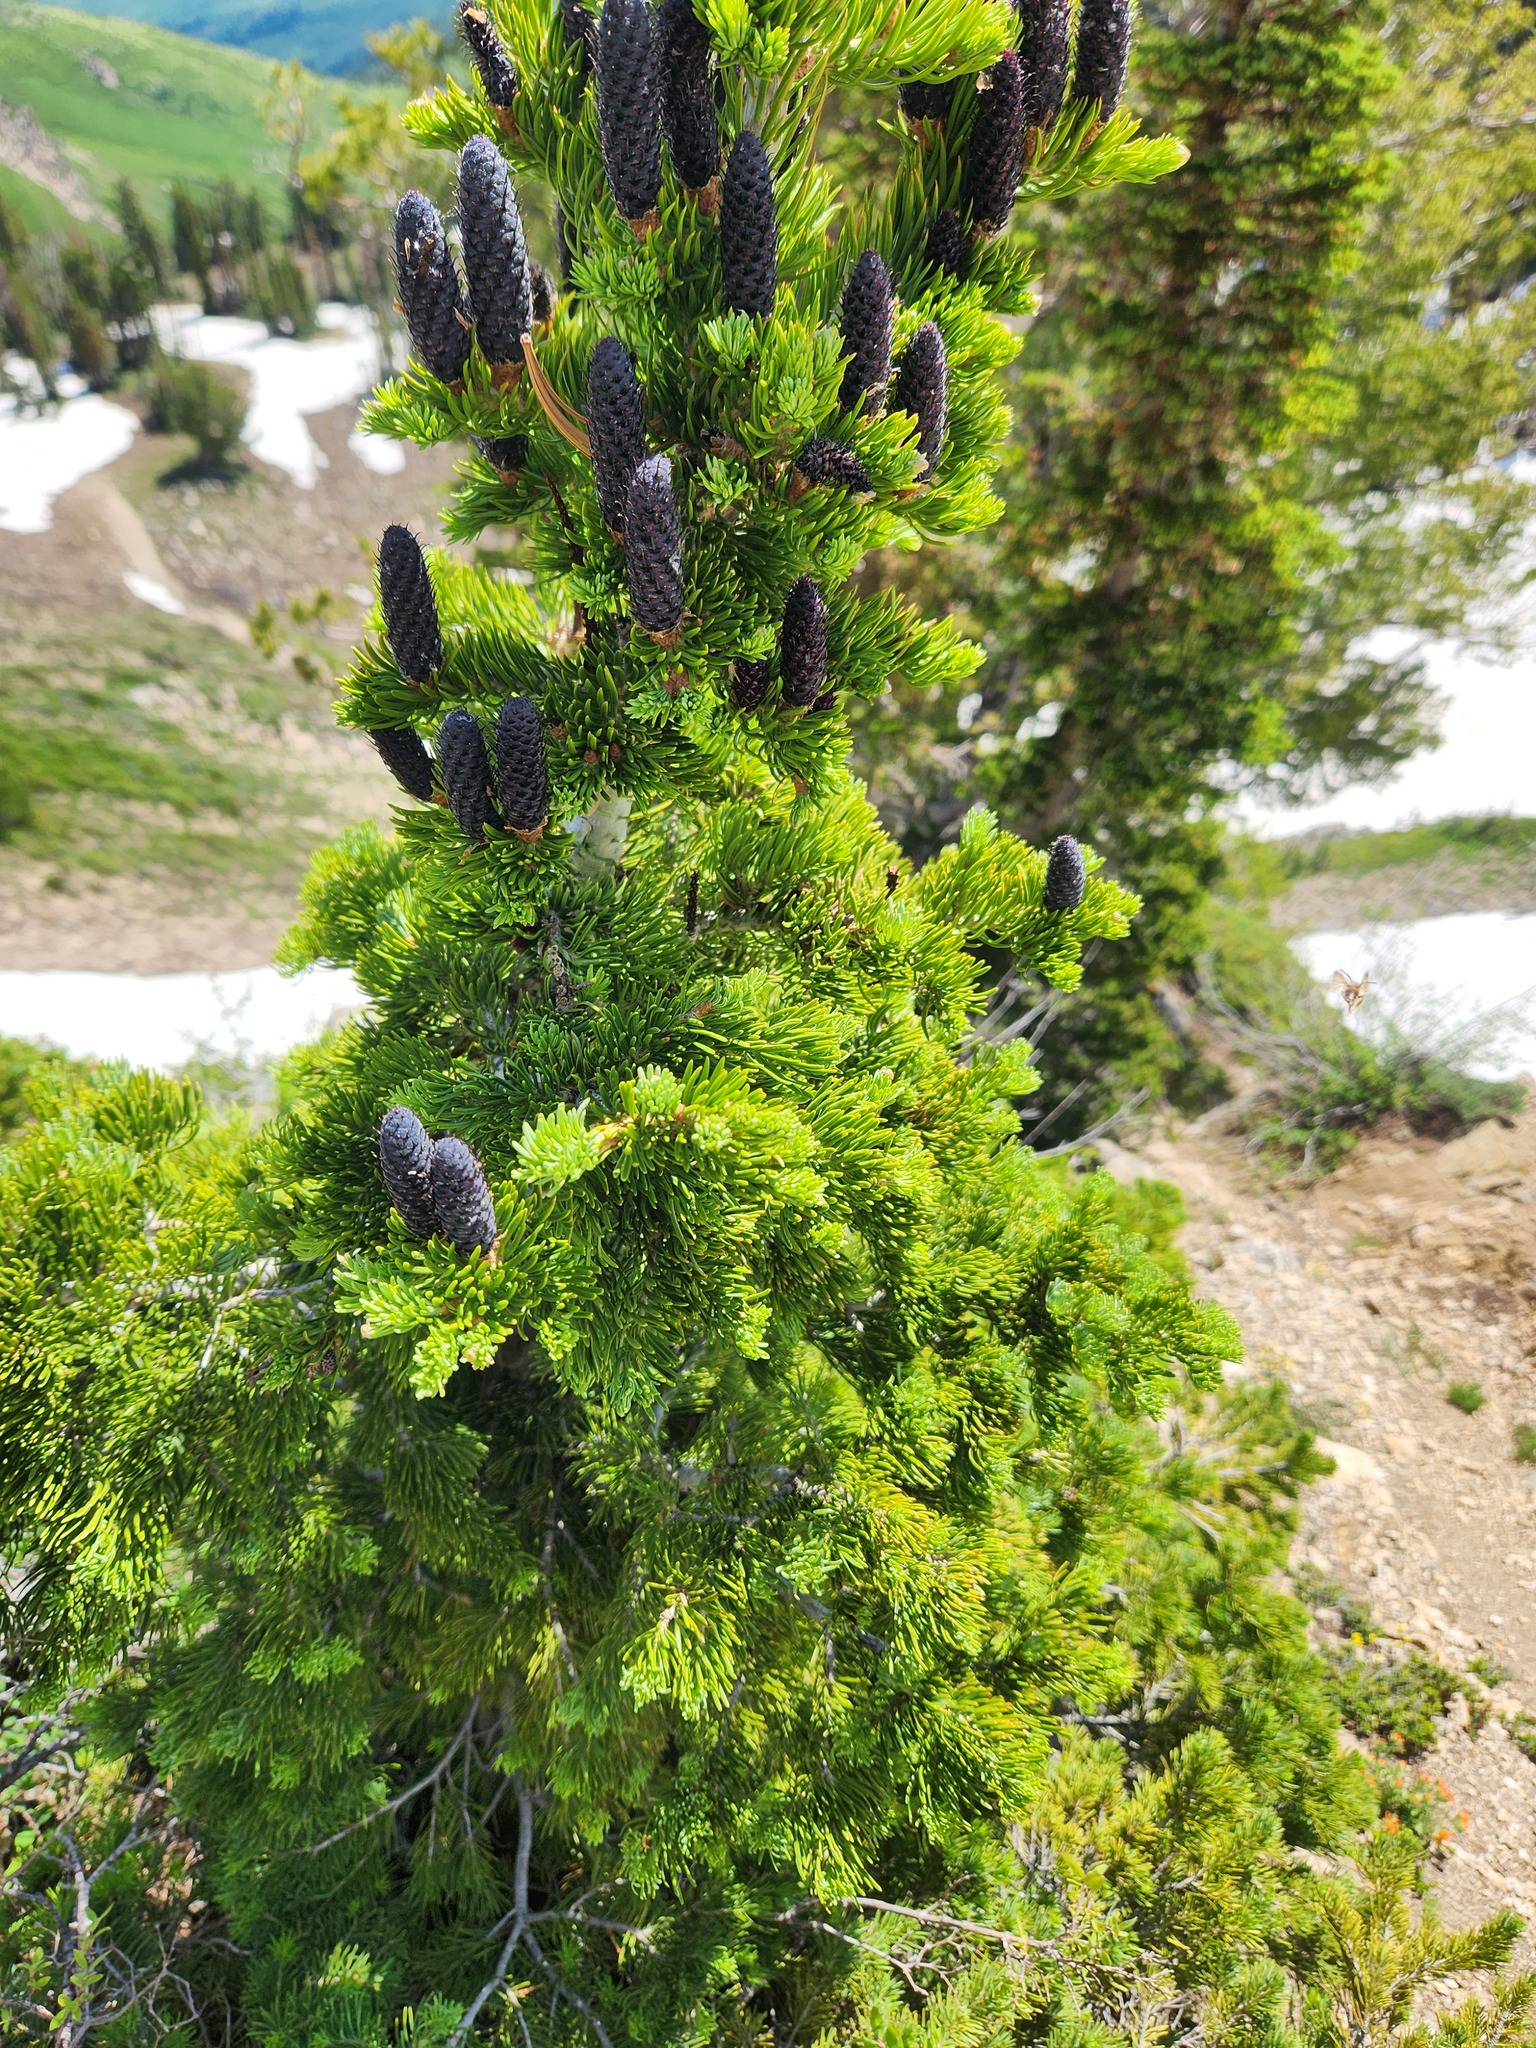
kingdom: Plantae
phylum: Tracheophyta
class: Pinopsida
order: Pinales
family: Pinaceae
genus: Abies
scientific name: Abies lasiocarpa
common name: Subalpine fir
